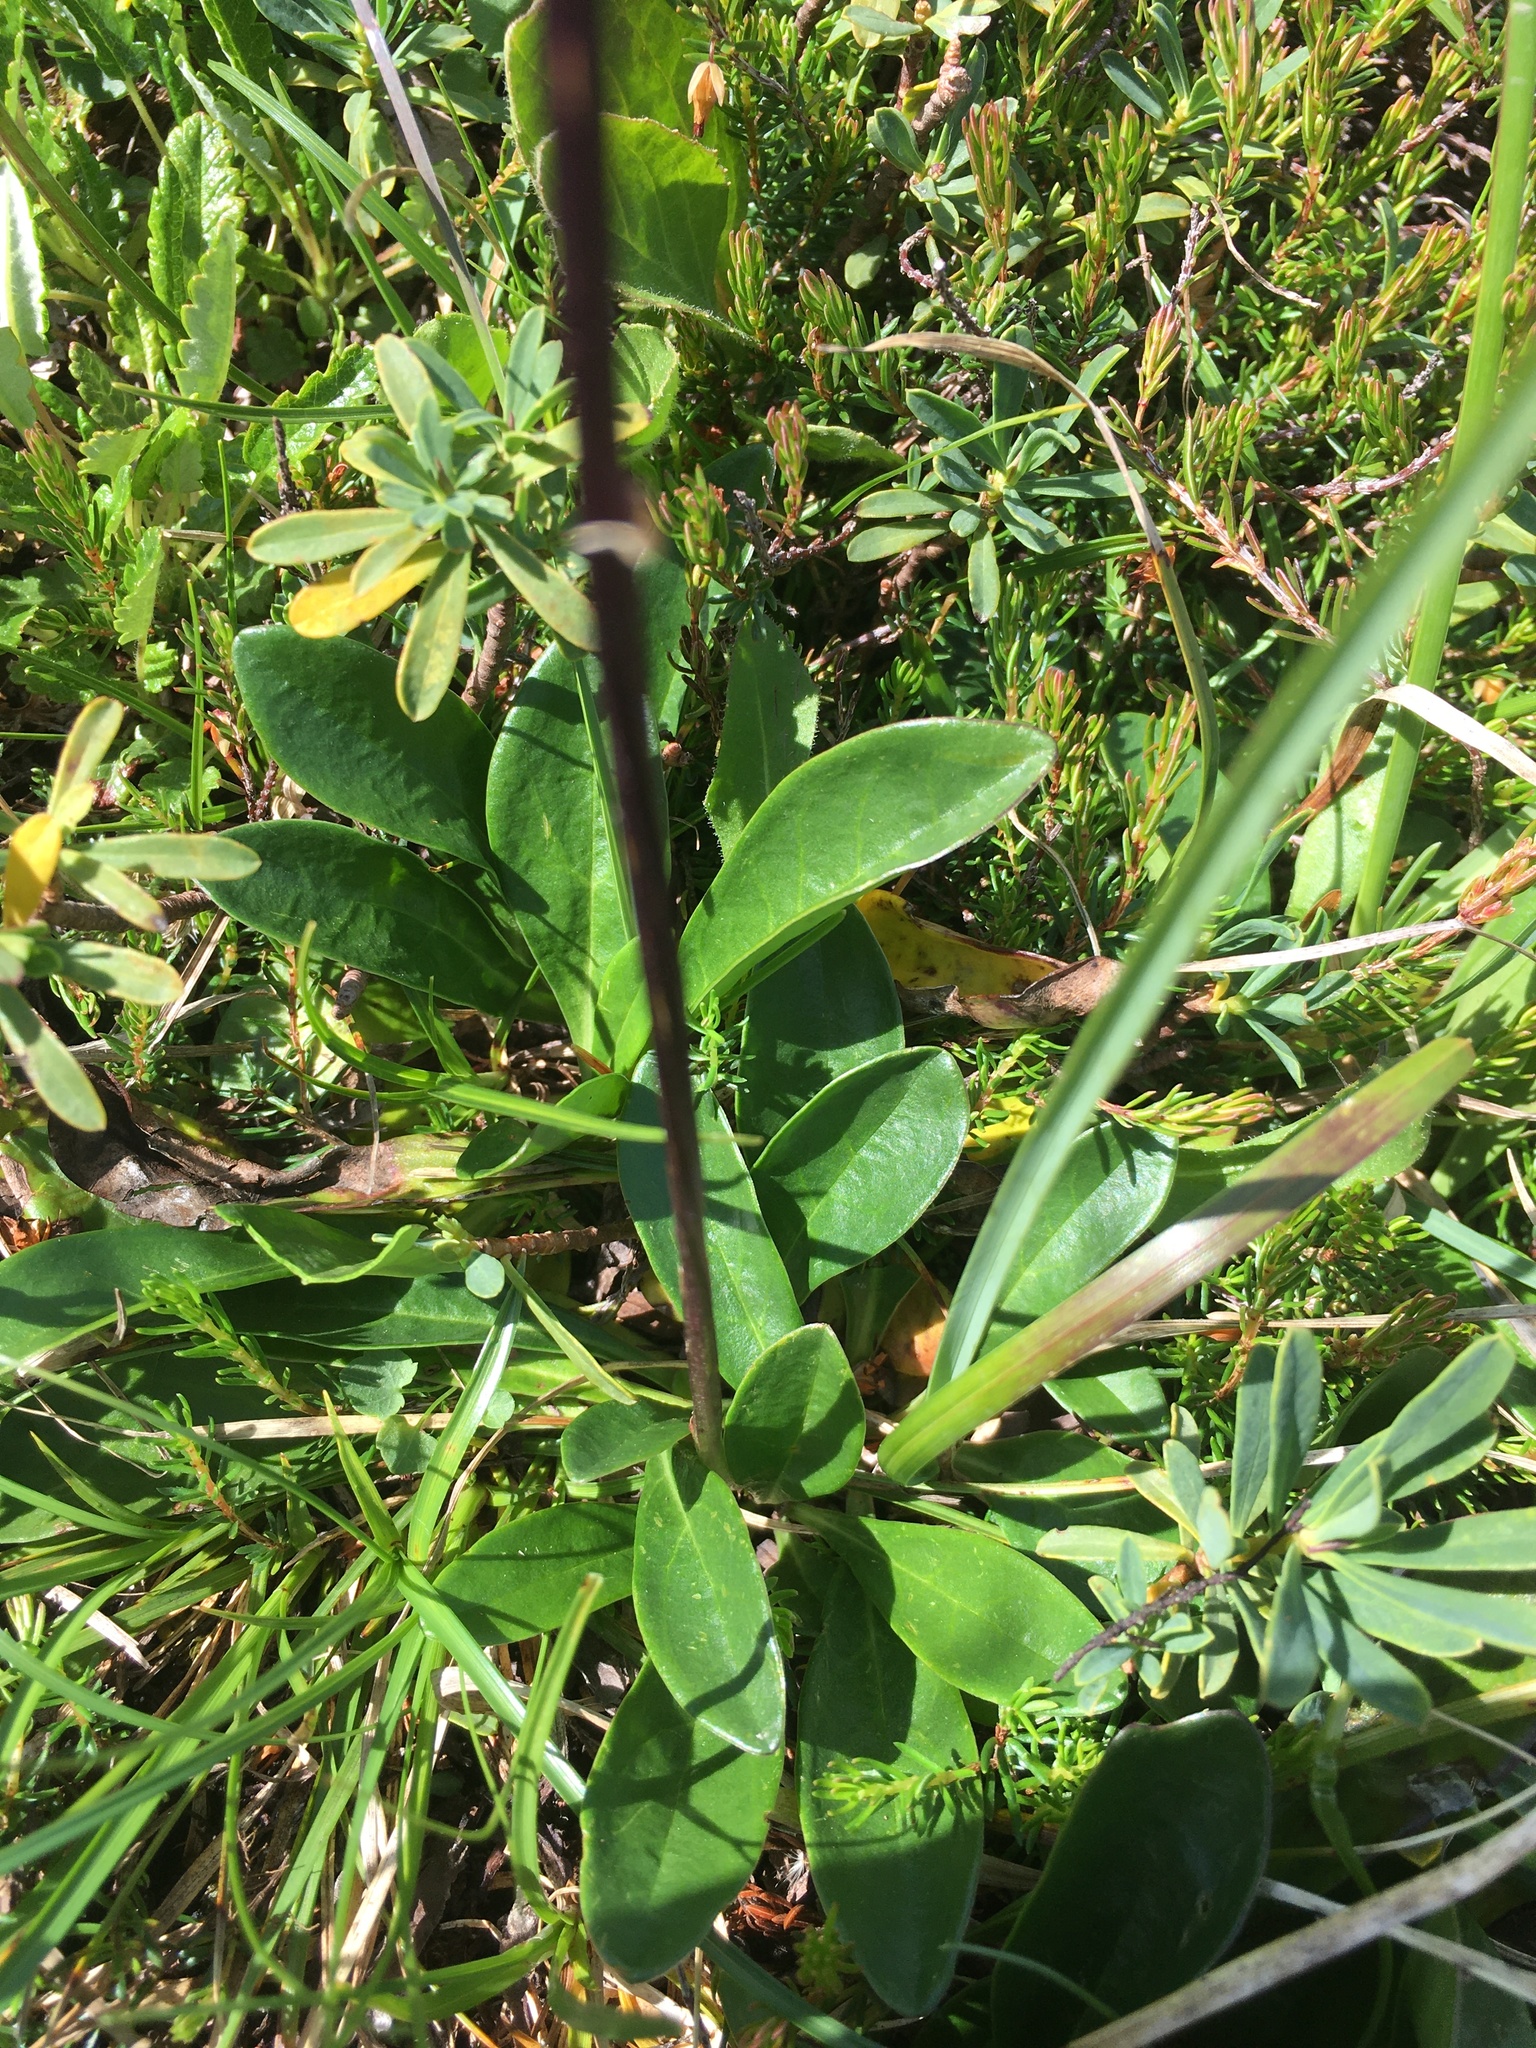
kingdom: Plantae
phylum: Tracheophyta
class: Magnoliopsida
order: Lamiales
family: Plantaginaceae
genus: Globularia
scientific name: Globularia nudicaulis
